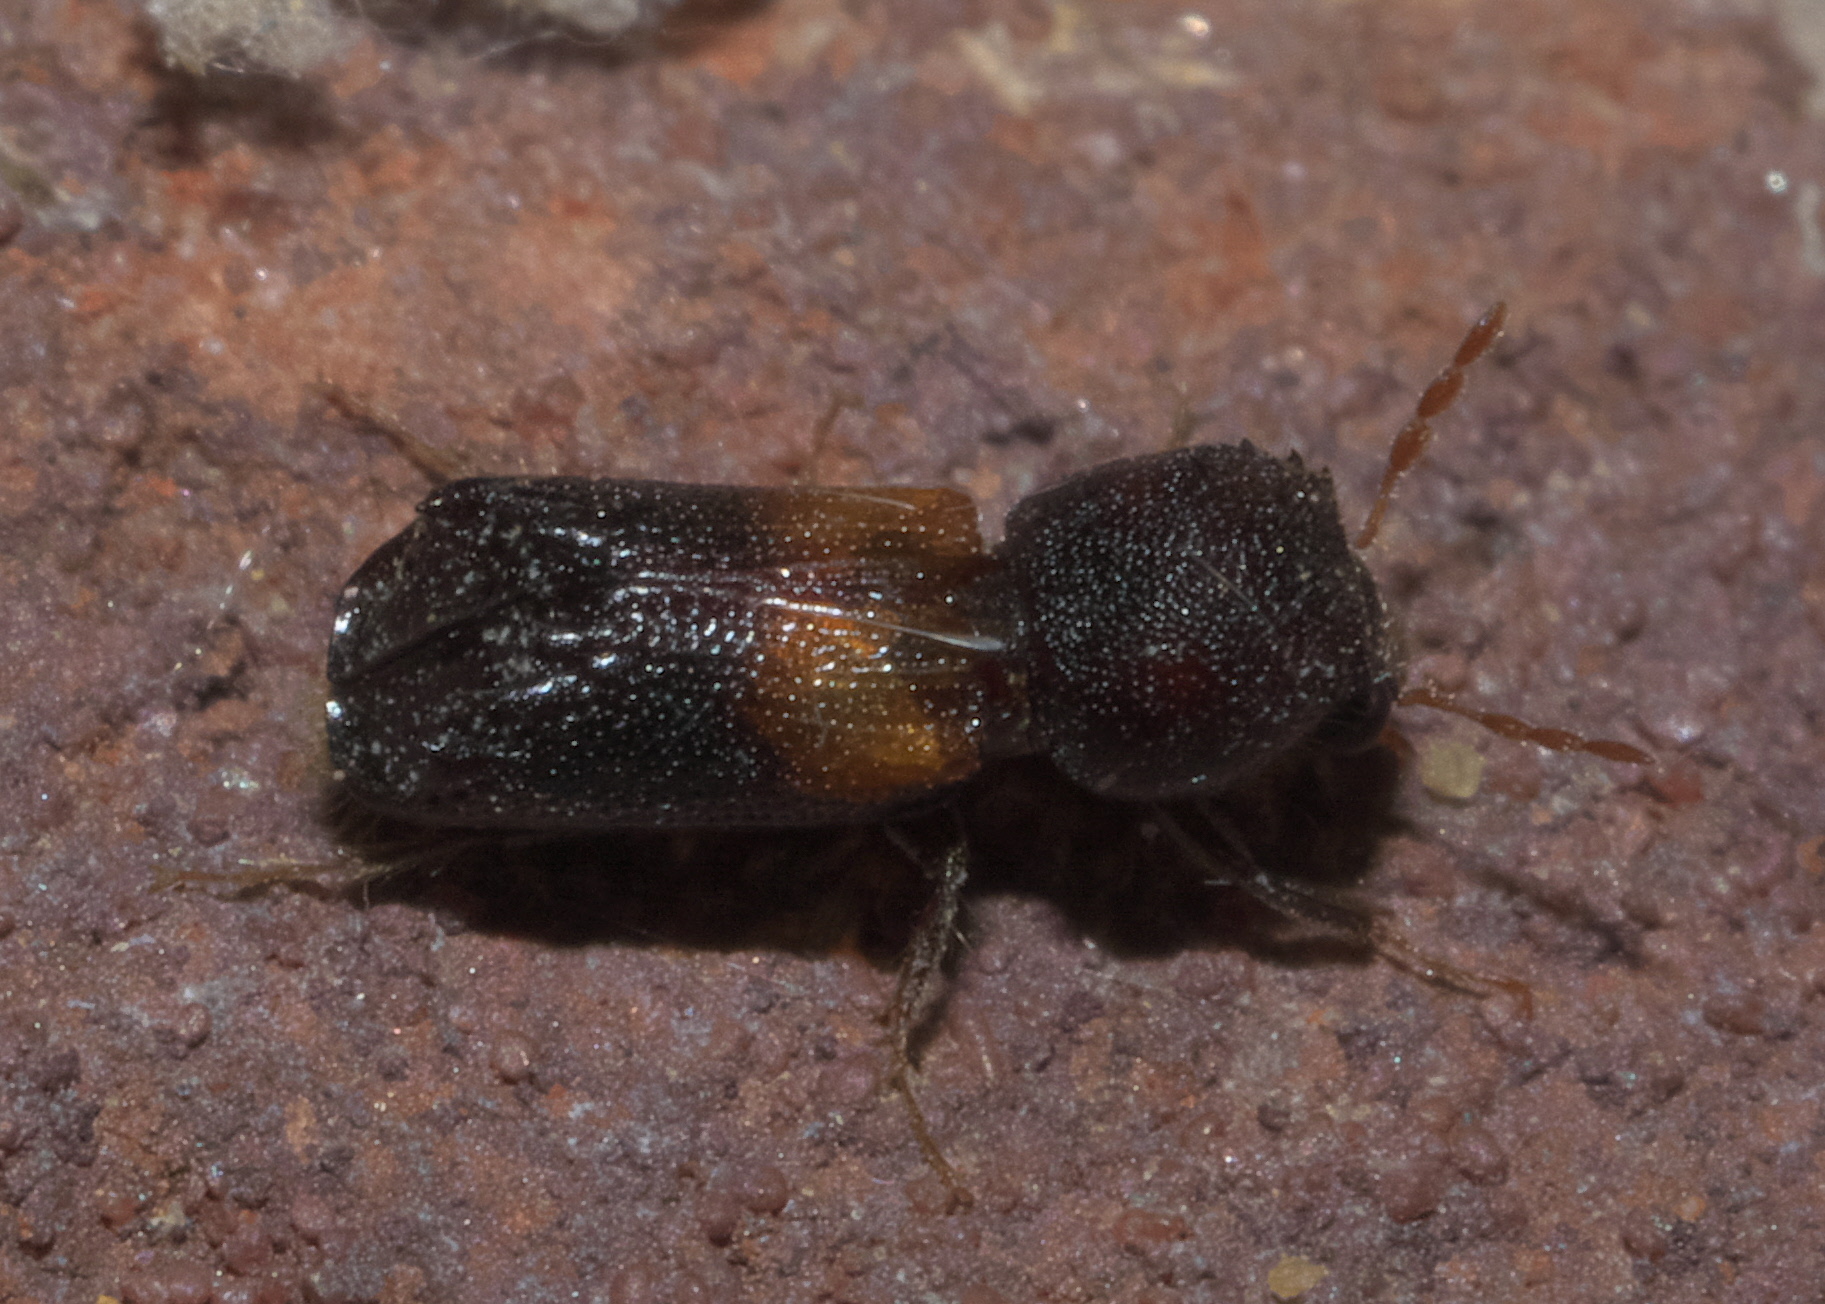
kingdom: Animalia
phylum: Arthropoda
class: Insecta
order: Coleoptera
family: Bostrichidae
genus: Xylobiops
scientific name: Xylobiops basilaris
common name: Red-shouldered bostrichid
